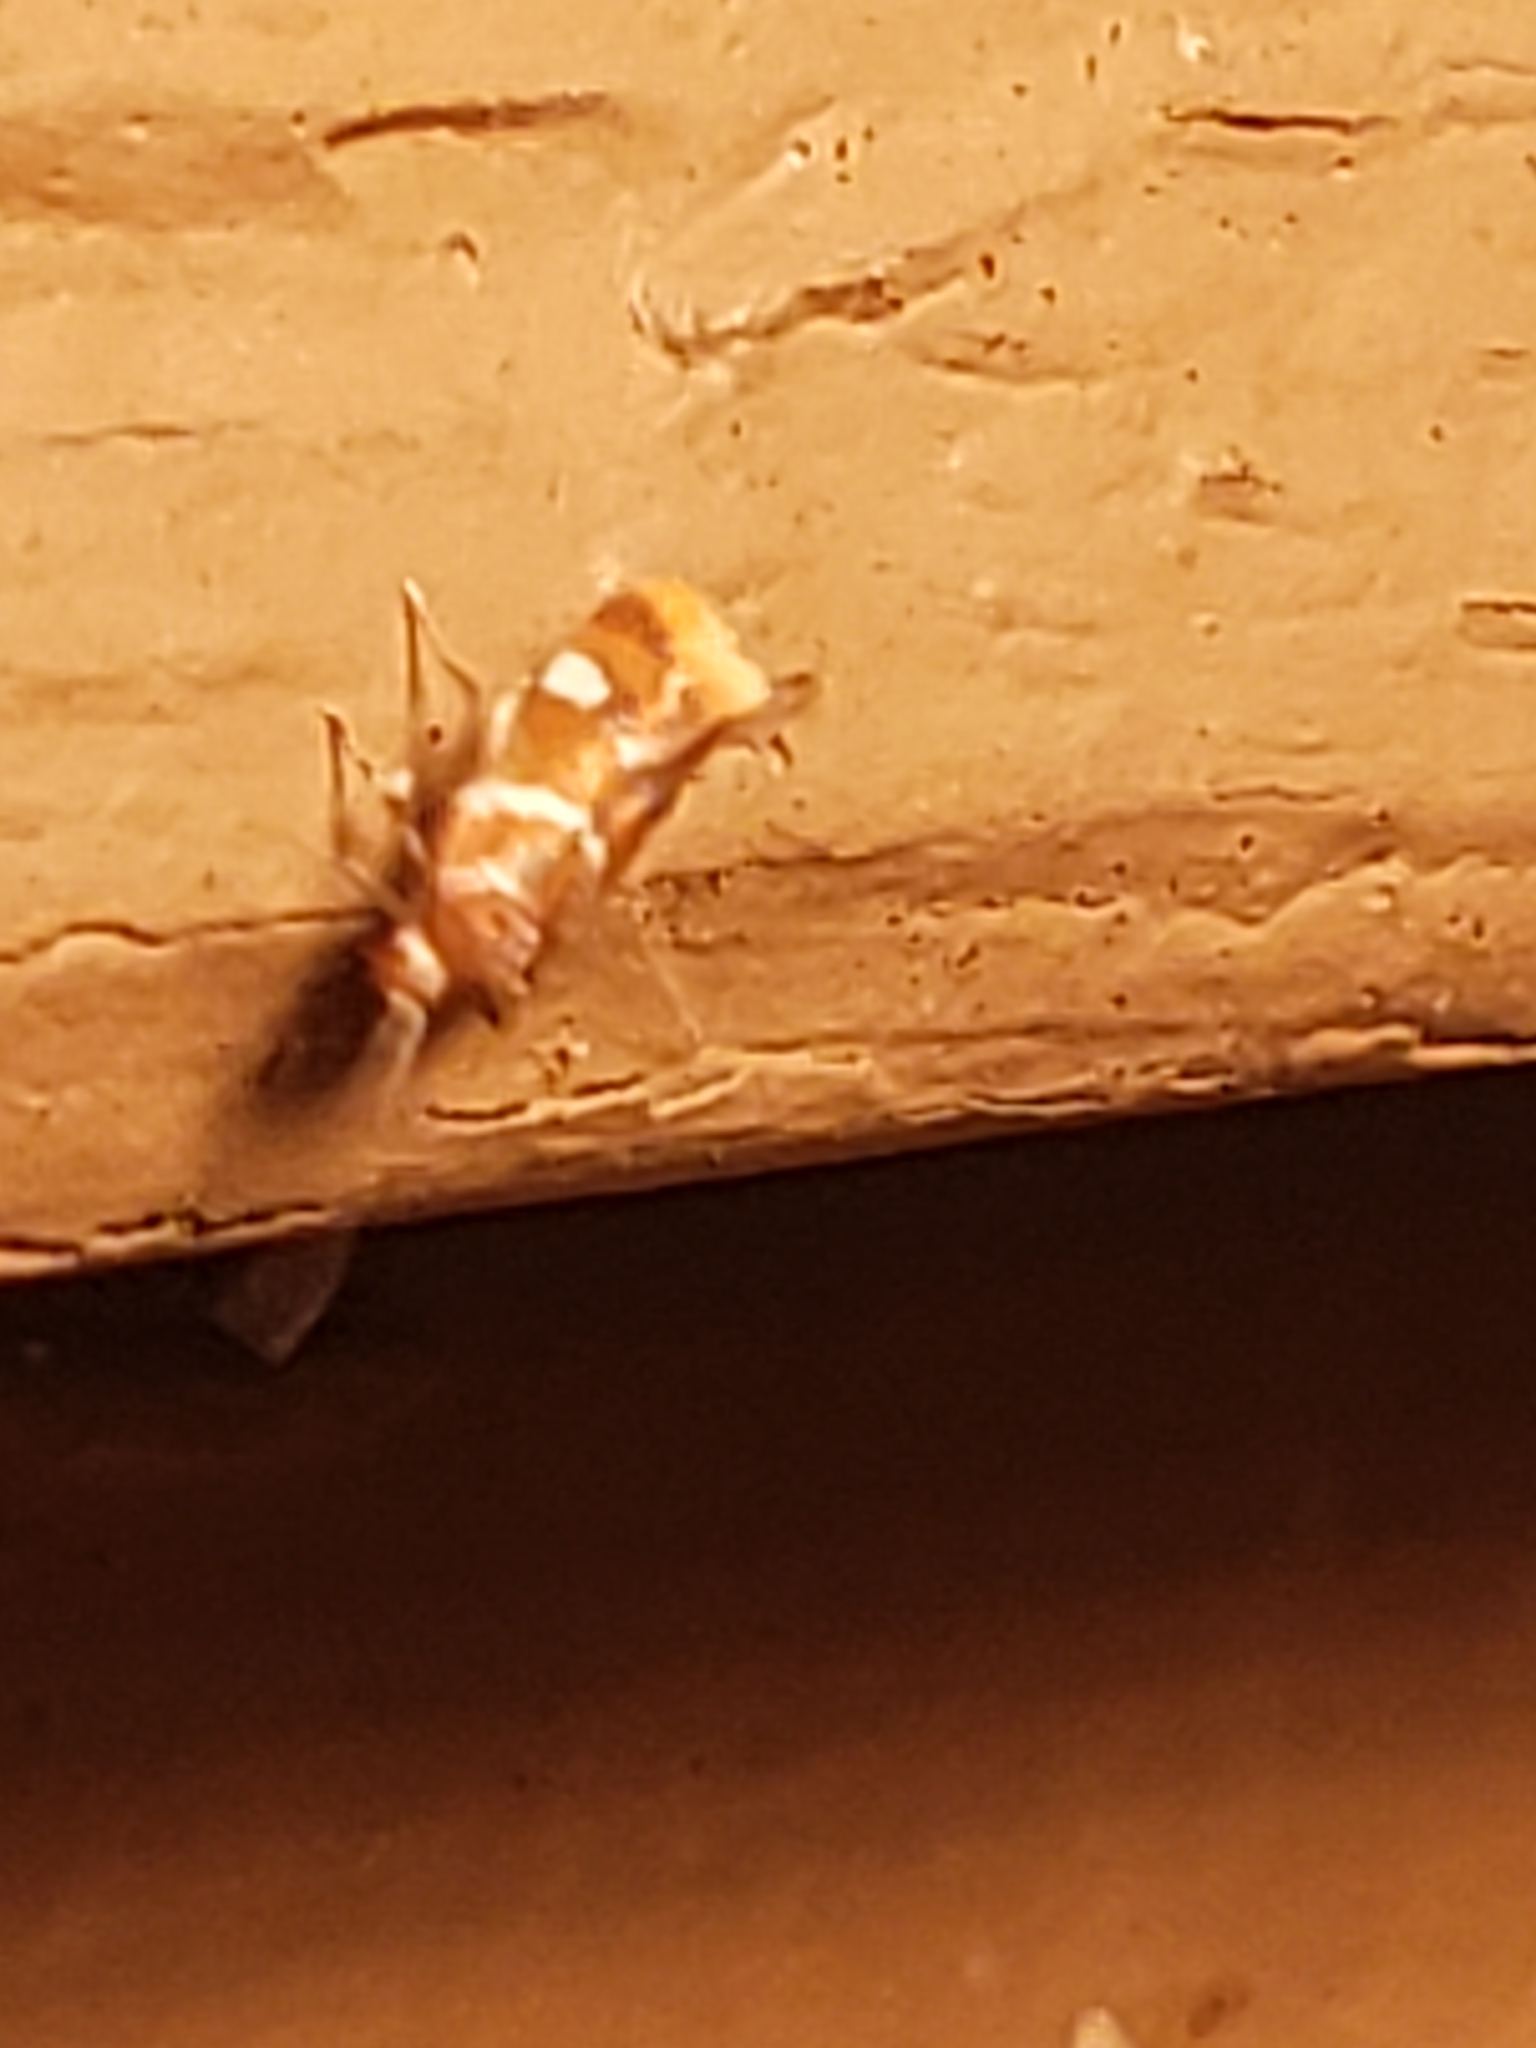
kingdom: Animalia
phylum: Arthropoda
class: Insecta
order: Lepidoptera
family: Oecophoridae
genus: Promalactis
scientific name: Promalactis suzukiella
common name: Moth
